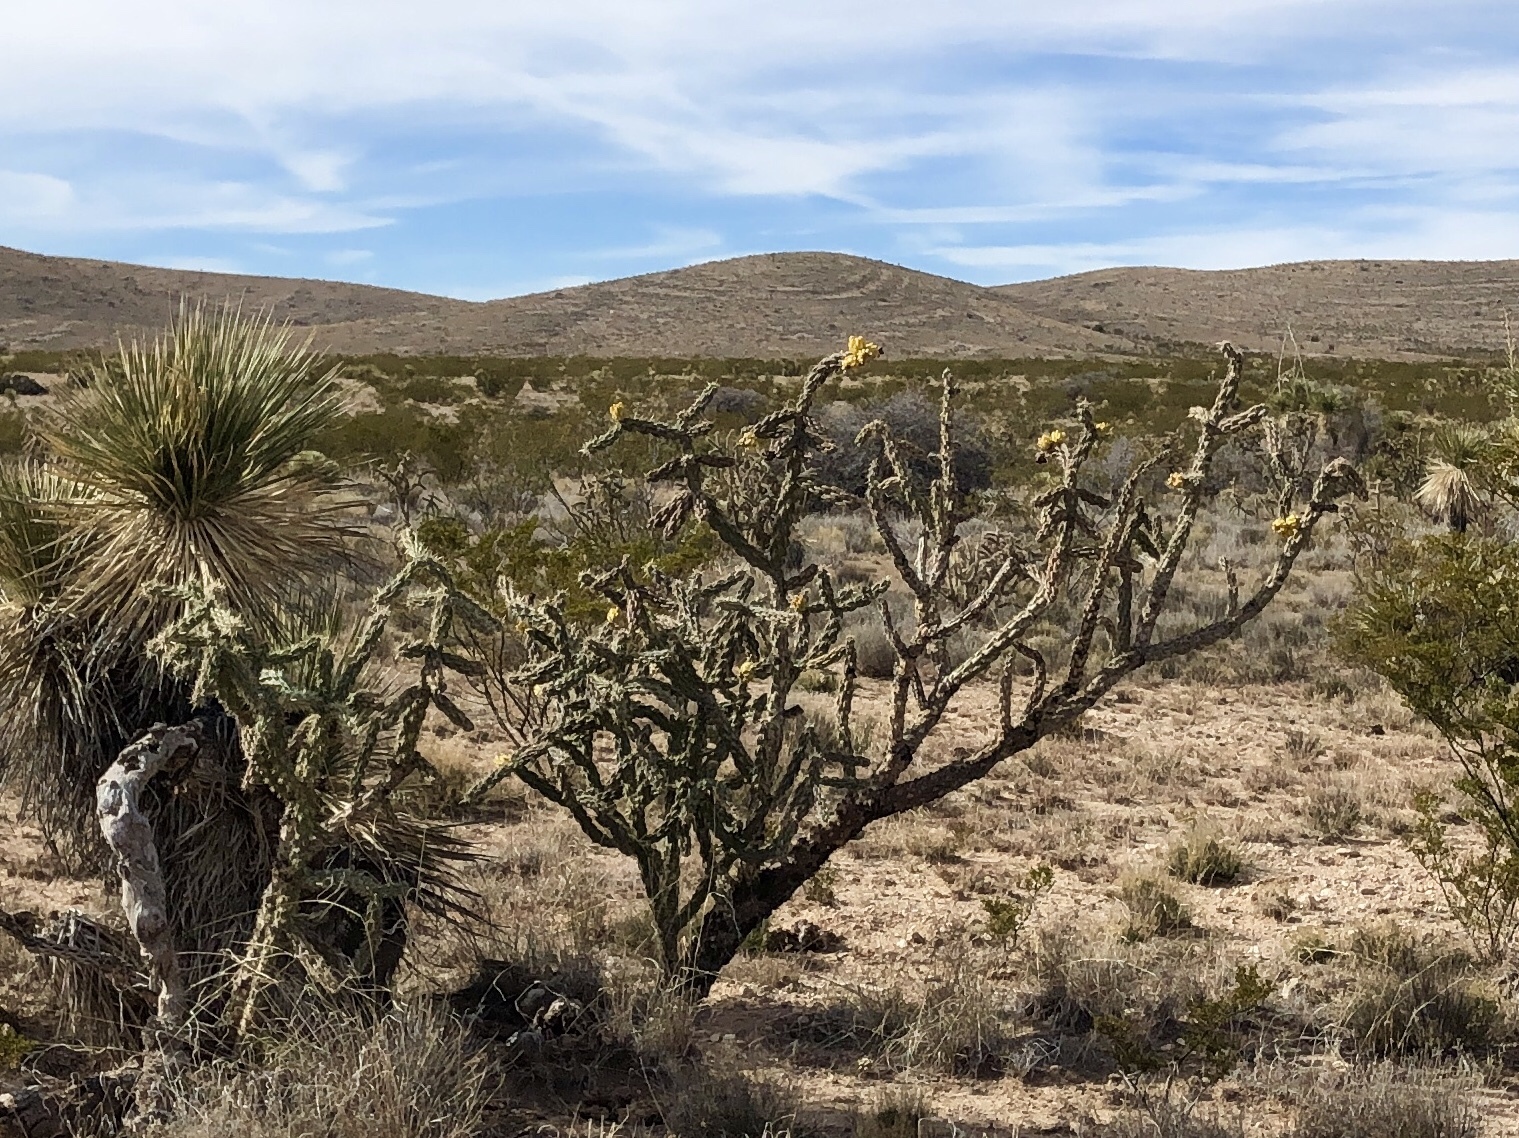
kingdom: Plantae
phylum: Tracheophyta
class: Magnoliopsida
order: Caryophyllales
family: Cactaceae
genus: Cylindropuntia
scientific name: Cylindropuntia imbricata
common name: Candelabrum cactus
